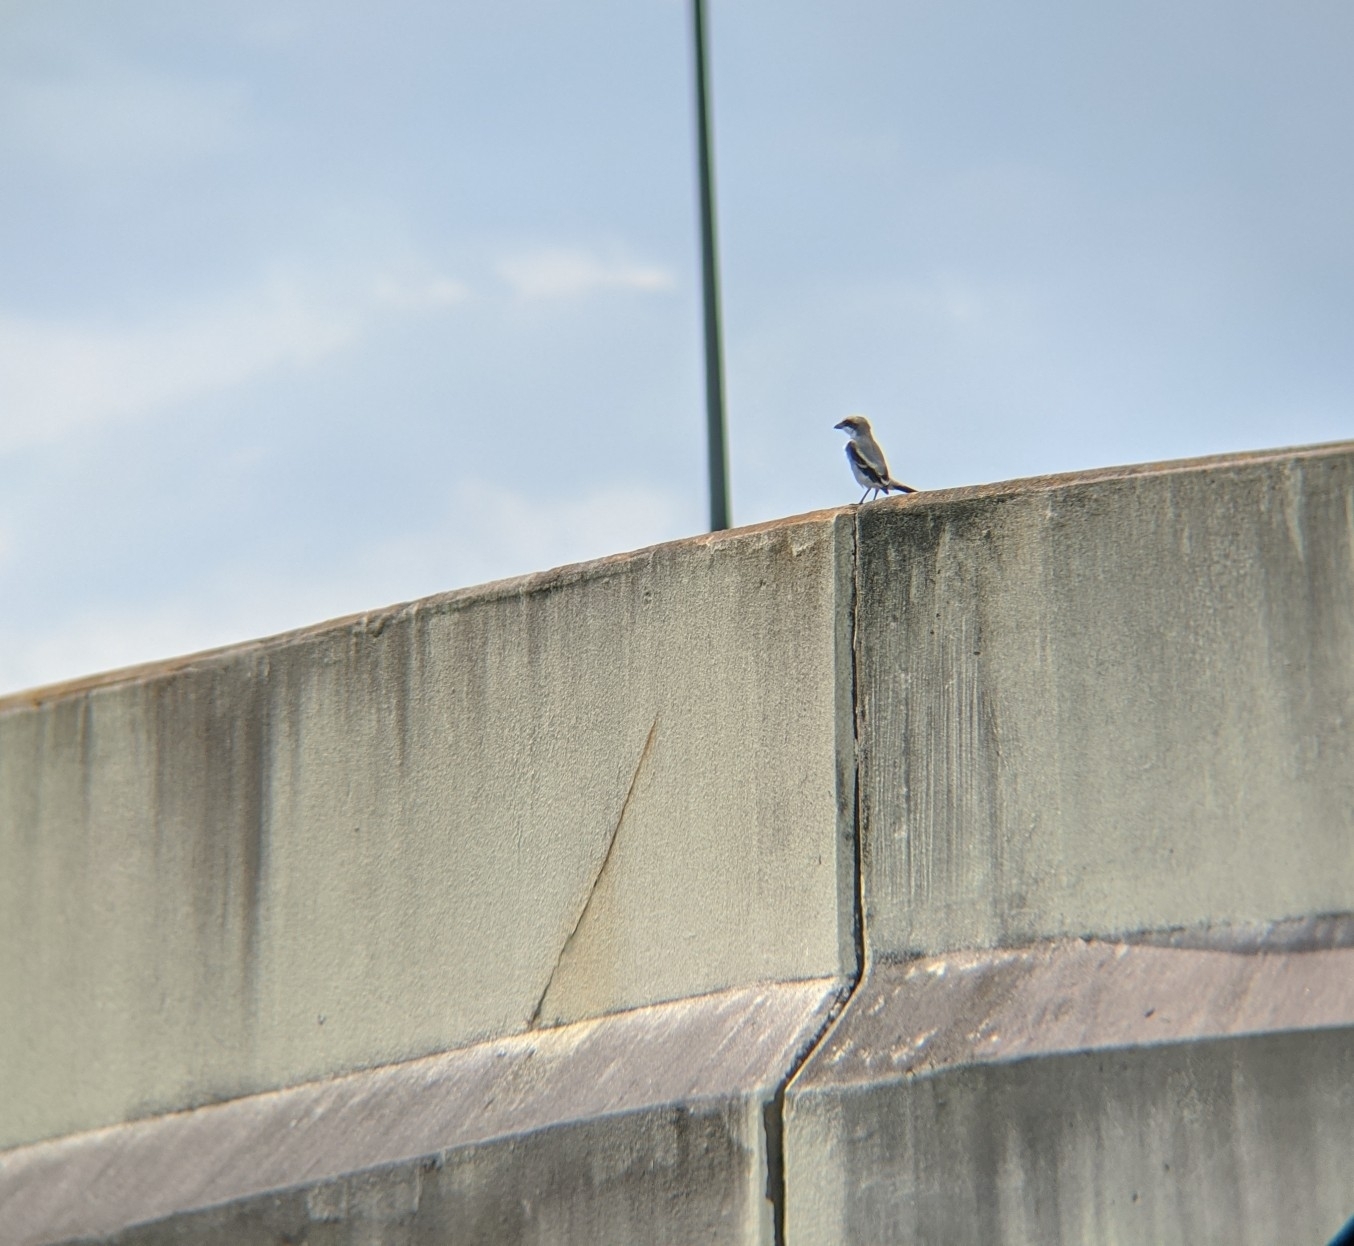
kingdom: Animalia
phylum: Chordata
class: Aves
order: Passeriformes
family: Laniidae
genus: Lanius
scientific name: Lanius ludovicianus
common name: Loggerhead shrike
